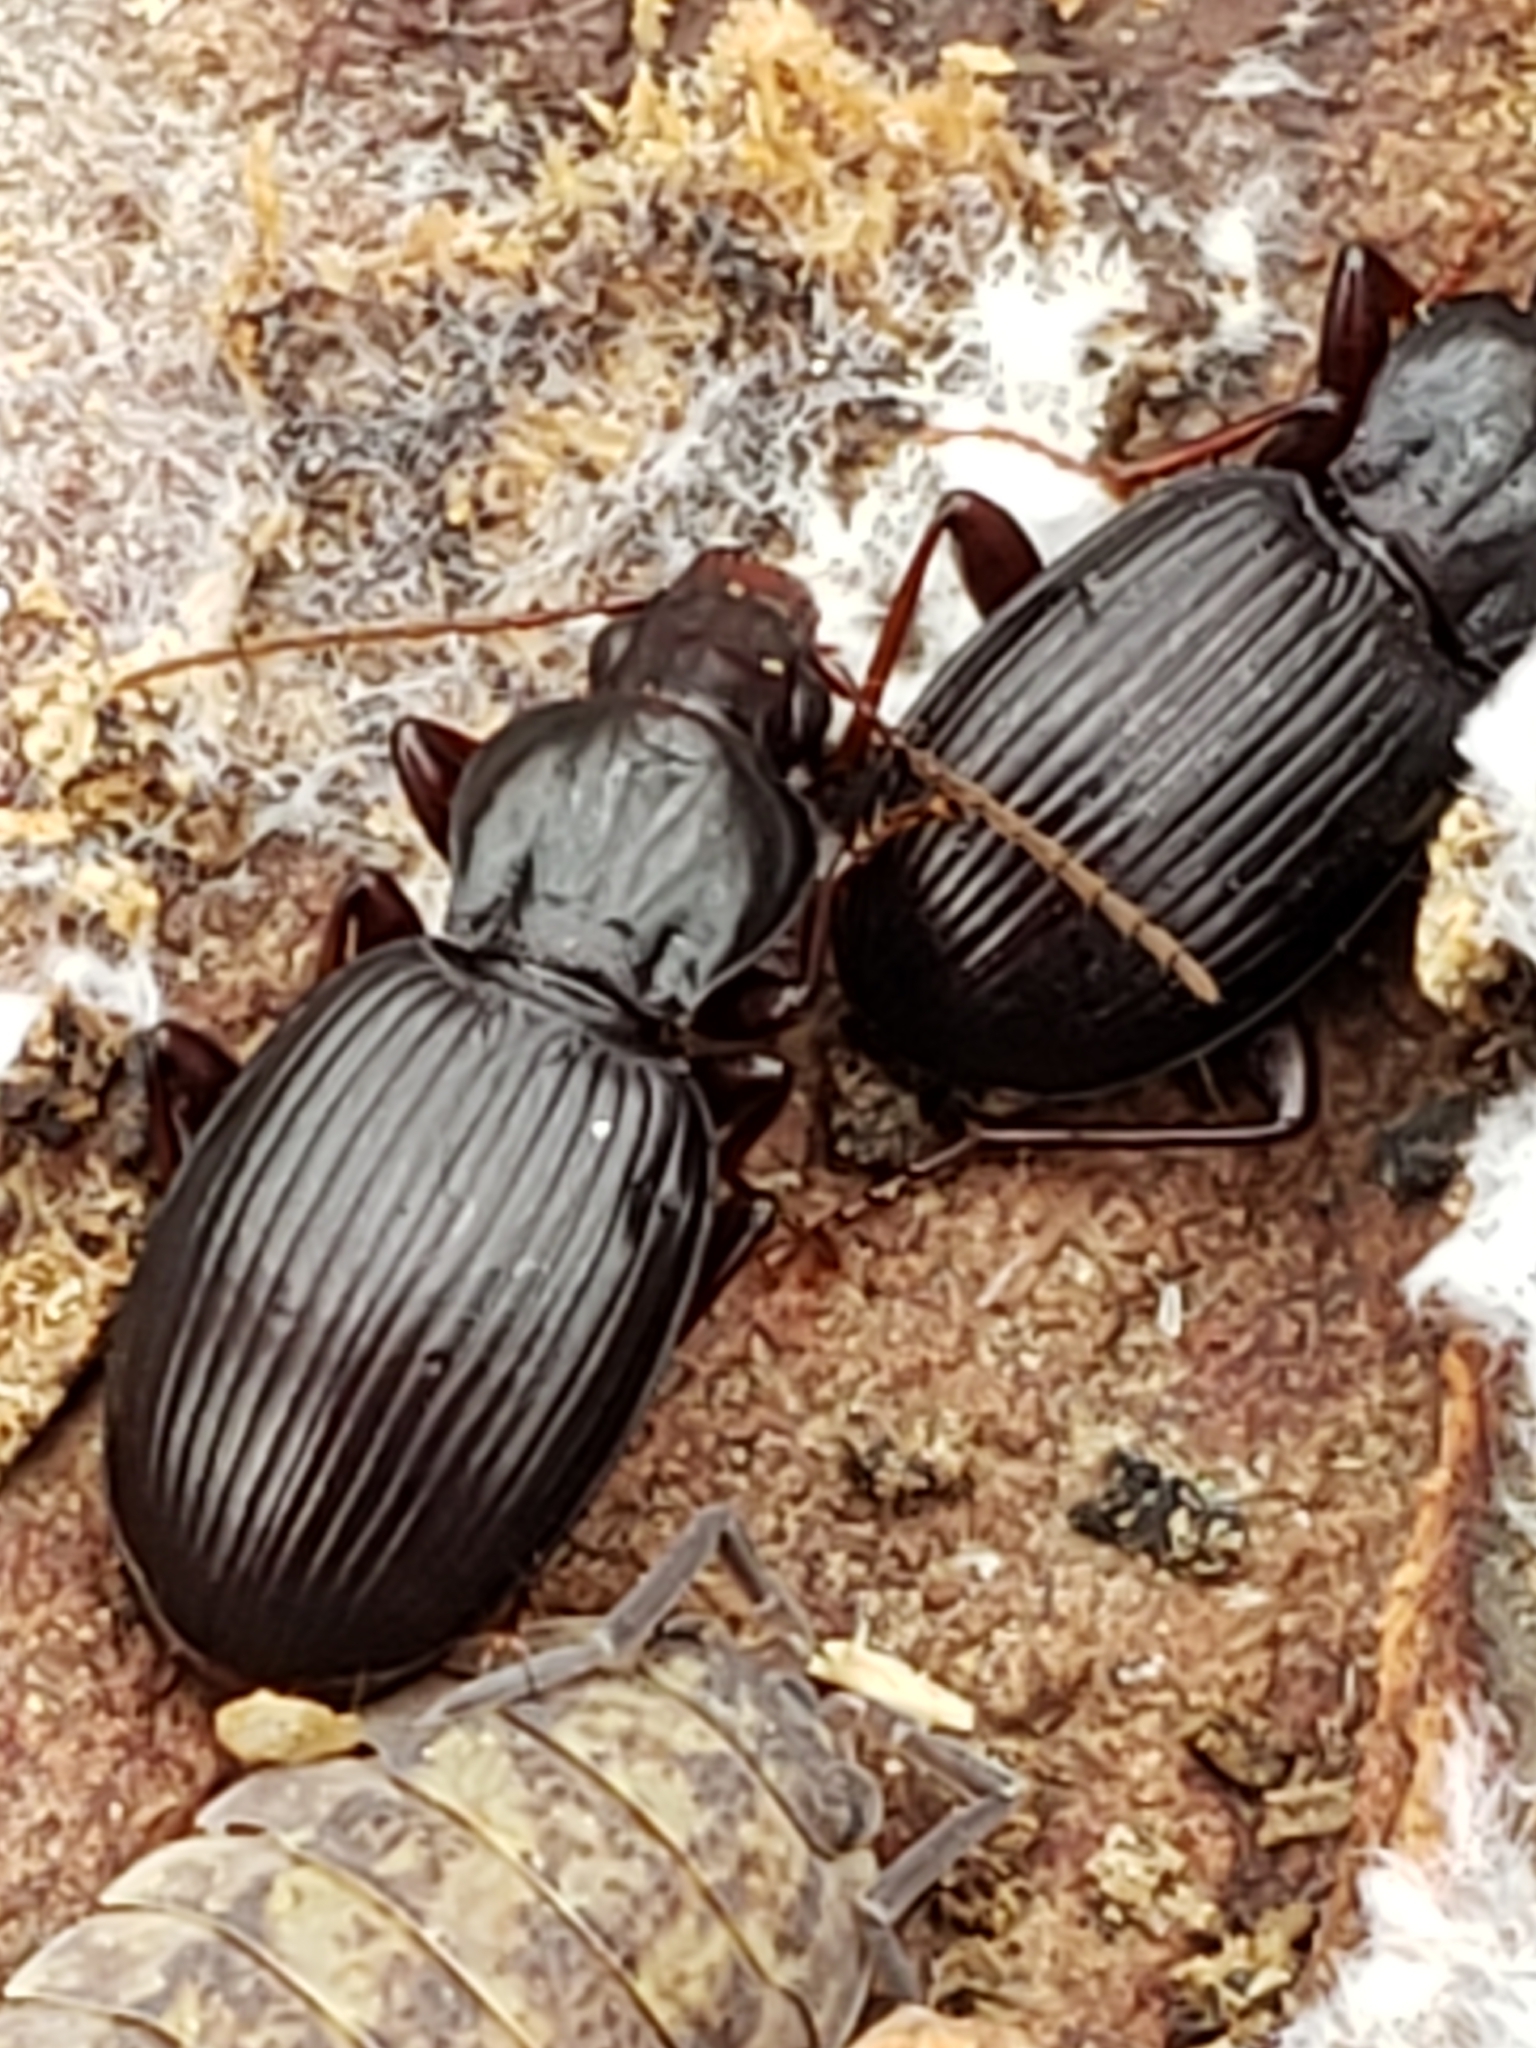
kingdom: Animalia
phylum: Arthropoda
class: Insecta
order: Coleoptera
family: Carabidae
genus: Gastrellarius
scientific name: Gastrellarius honestus
